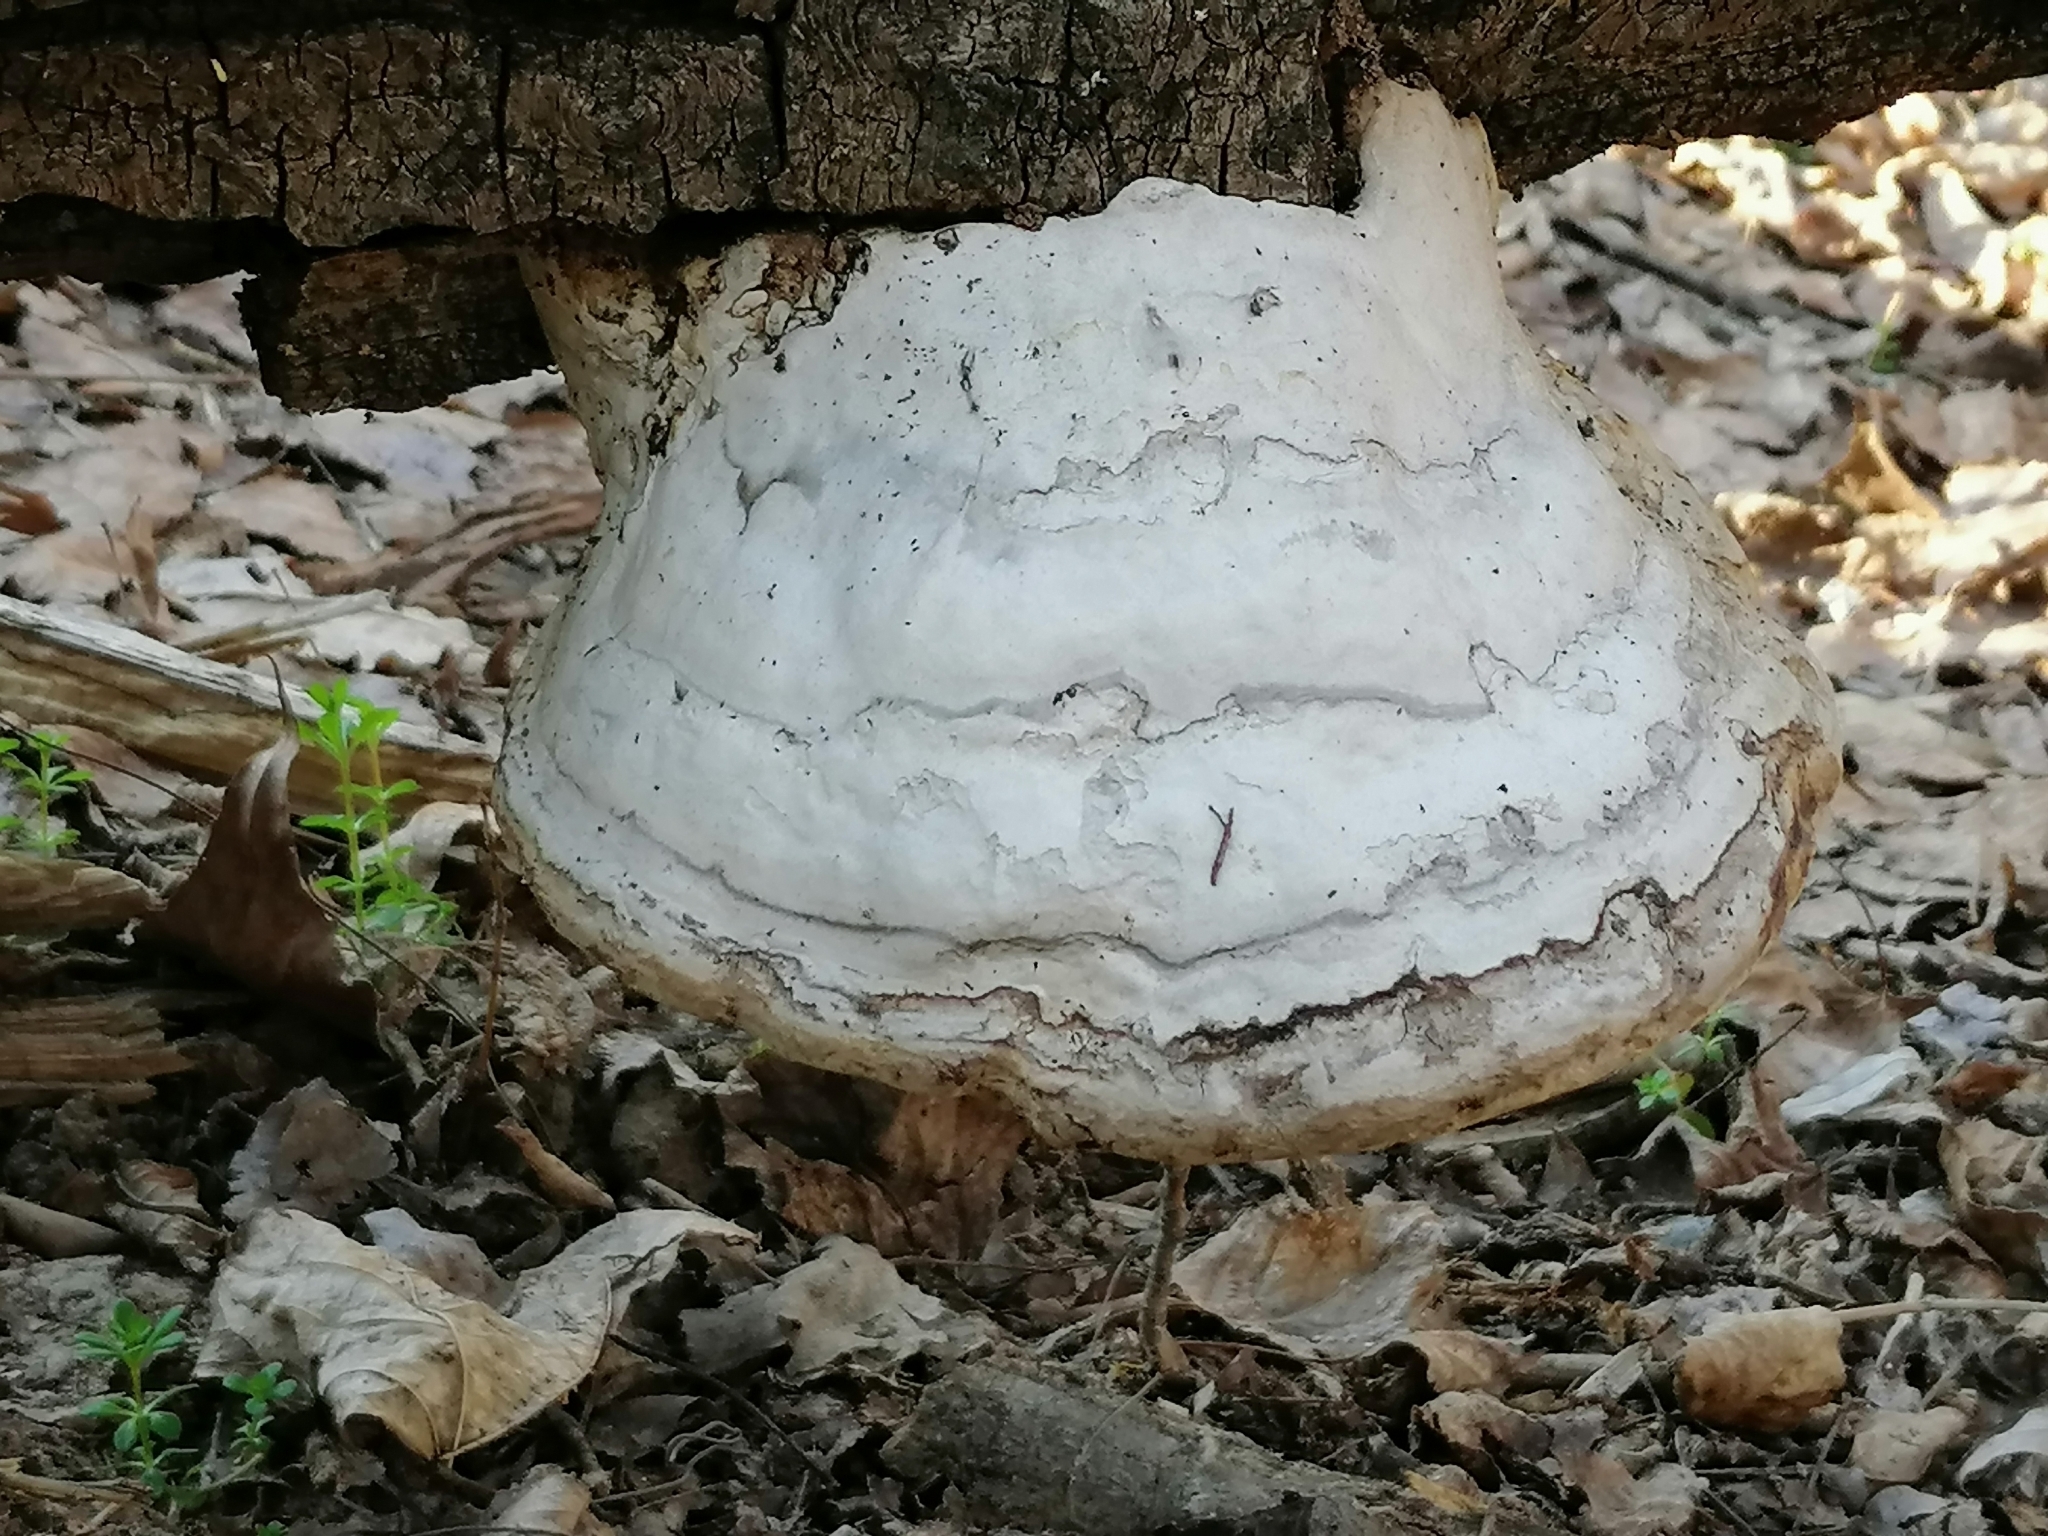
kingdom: Fungi
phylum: Basidiomycota
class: Agaricomycetes
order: Polyporales
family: Polyporaceae
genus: Fomes
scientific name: Fomes fomentarius
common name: Hoof fungus
